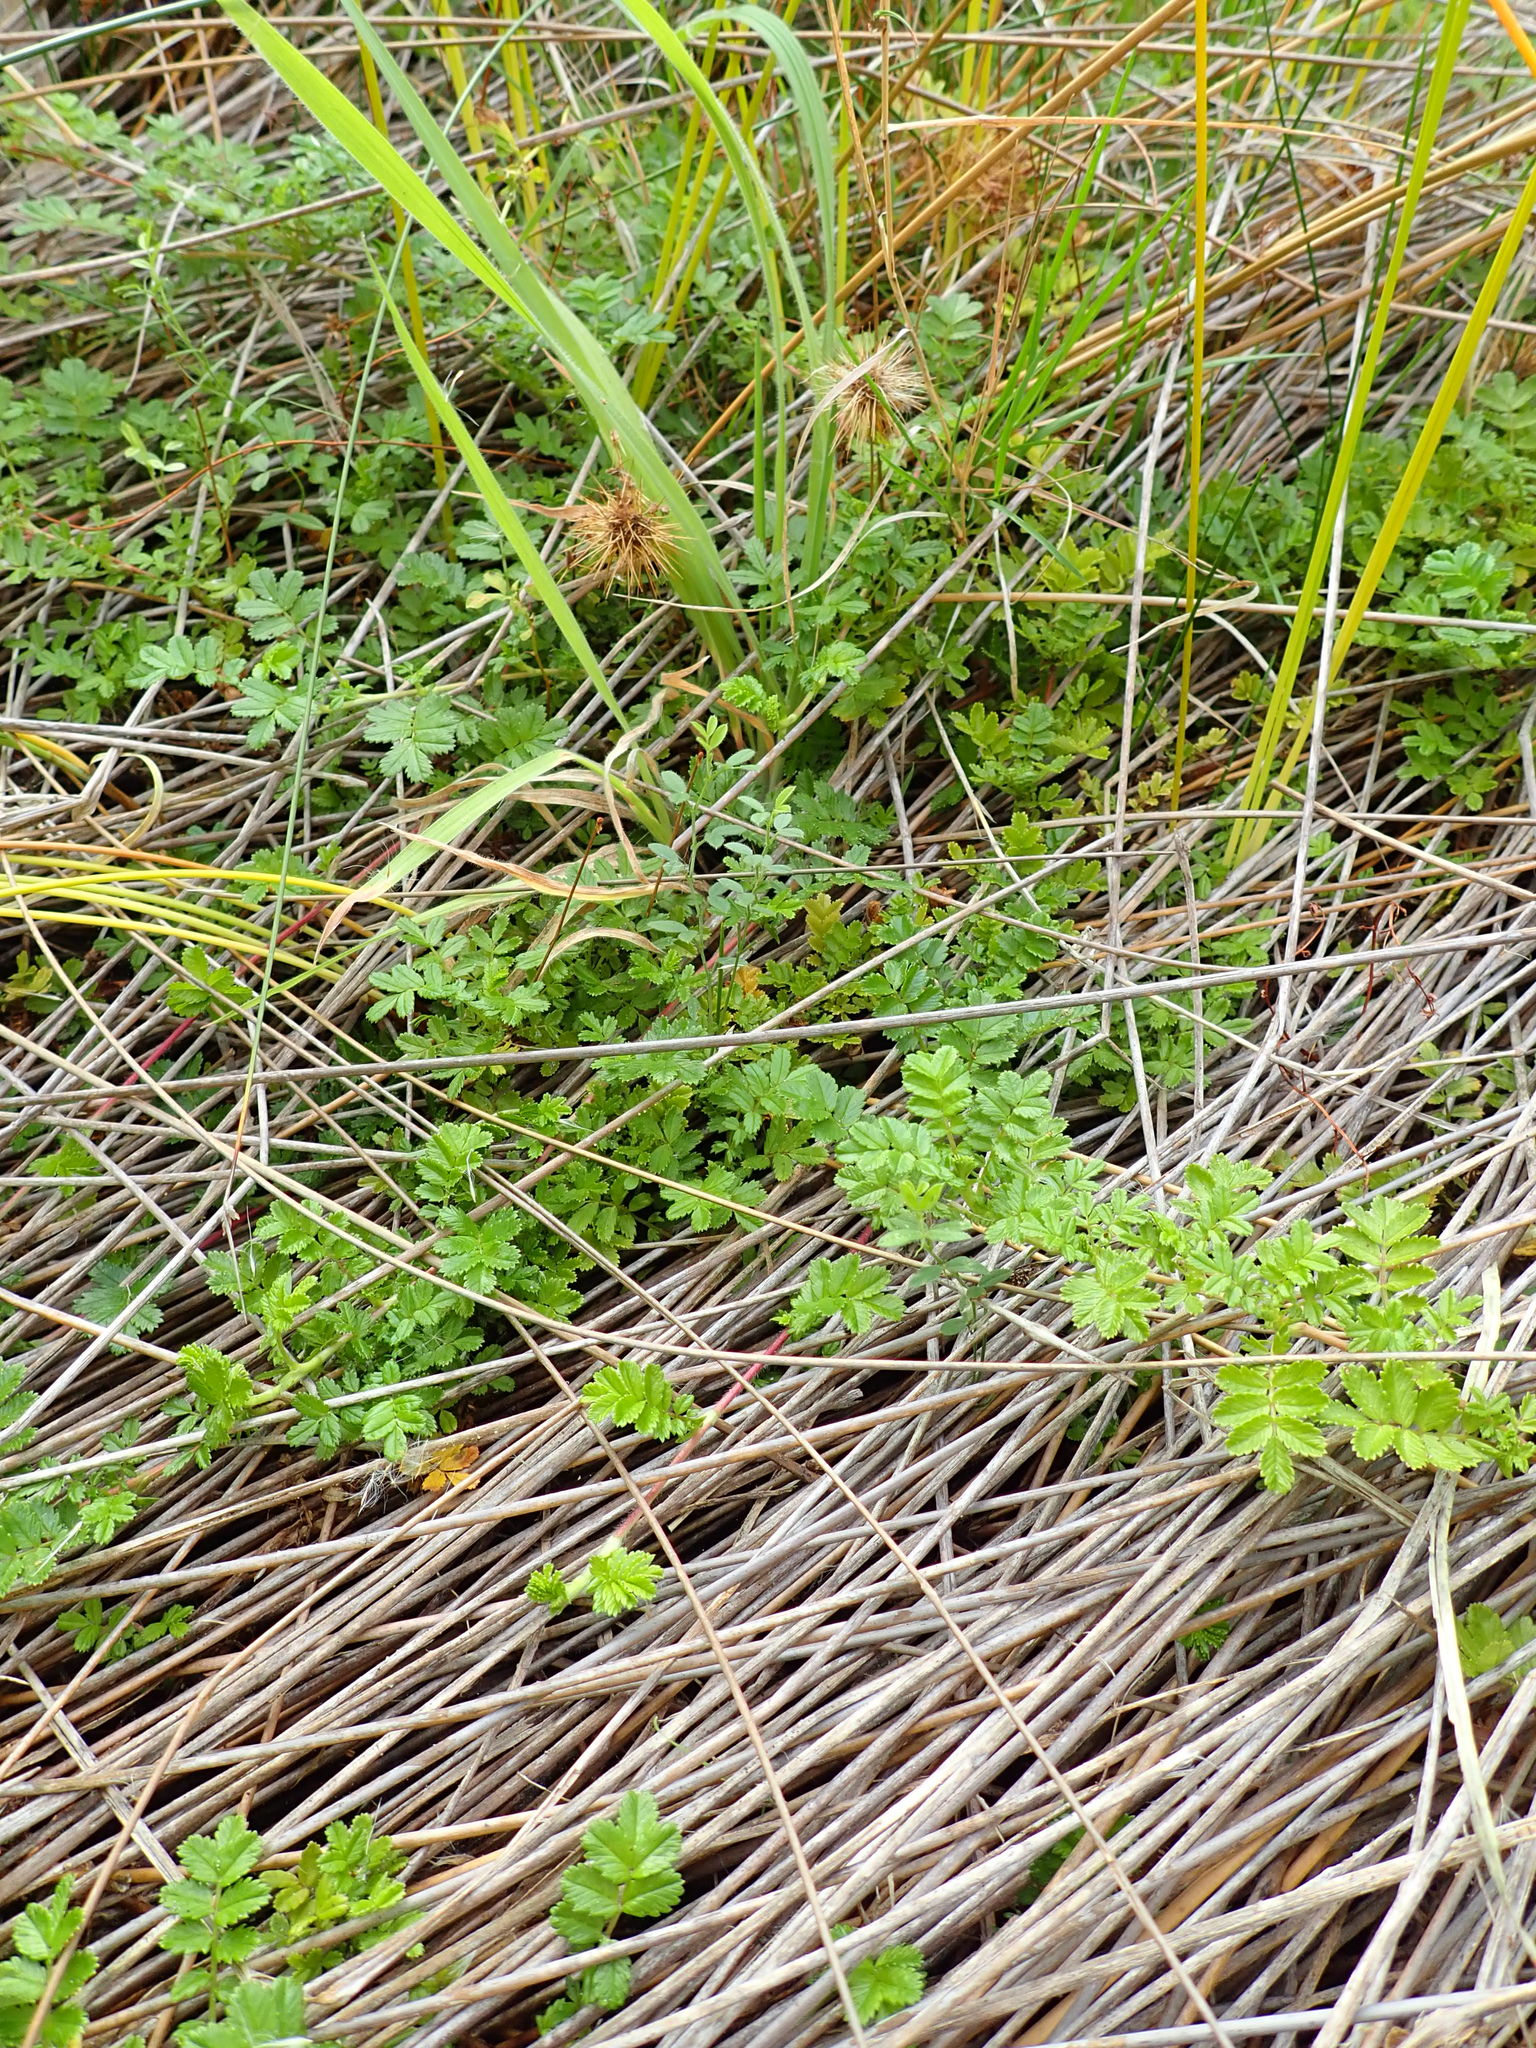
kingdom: Plantae
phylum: Tracheophyta
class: Magnoliopsida
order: Rosales
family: Rosaceae
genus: Acaena
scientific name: Acaena novae-zelandiae
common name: Pirri-pirri-bur
